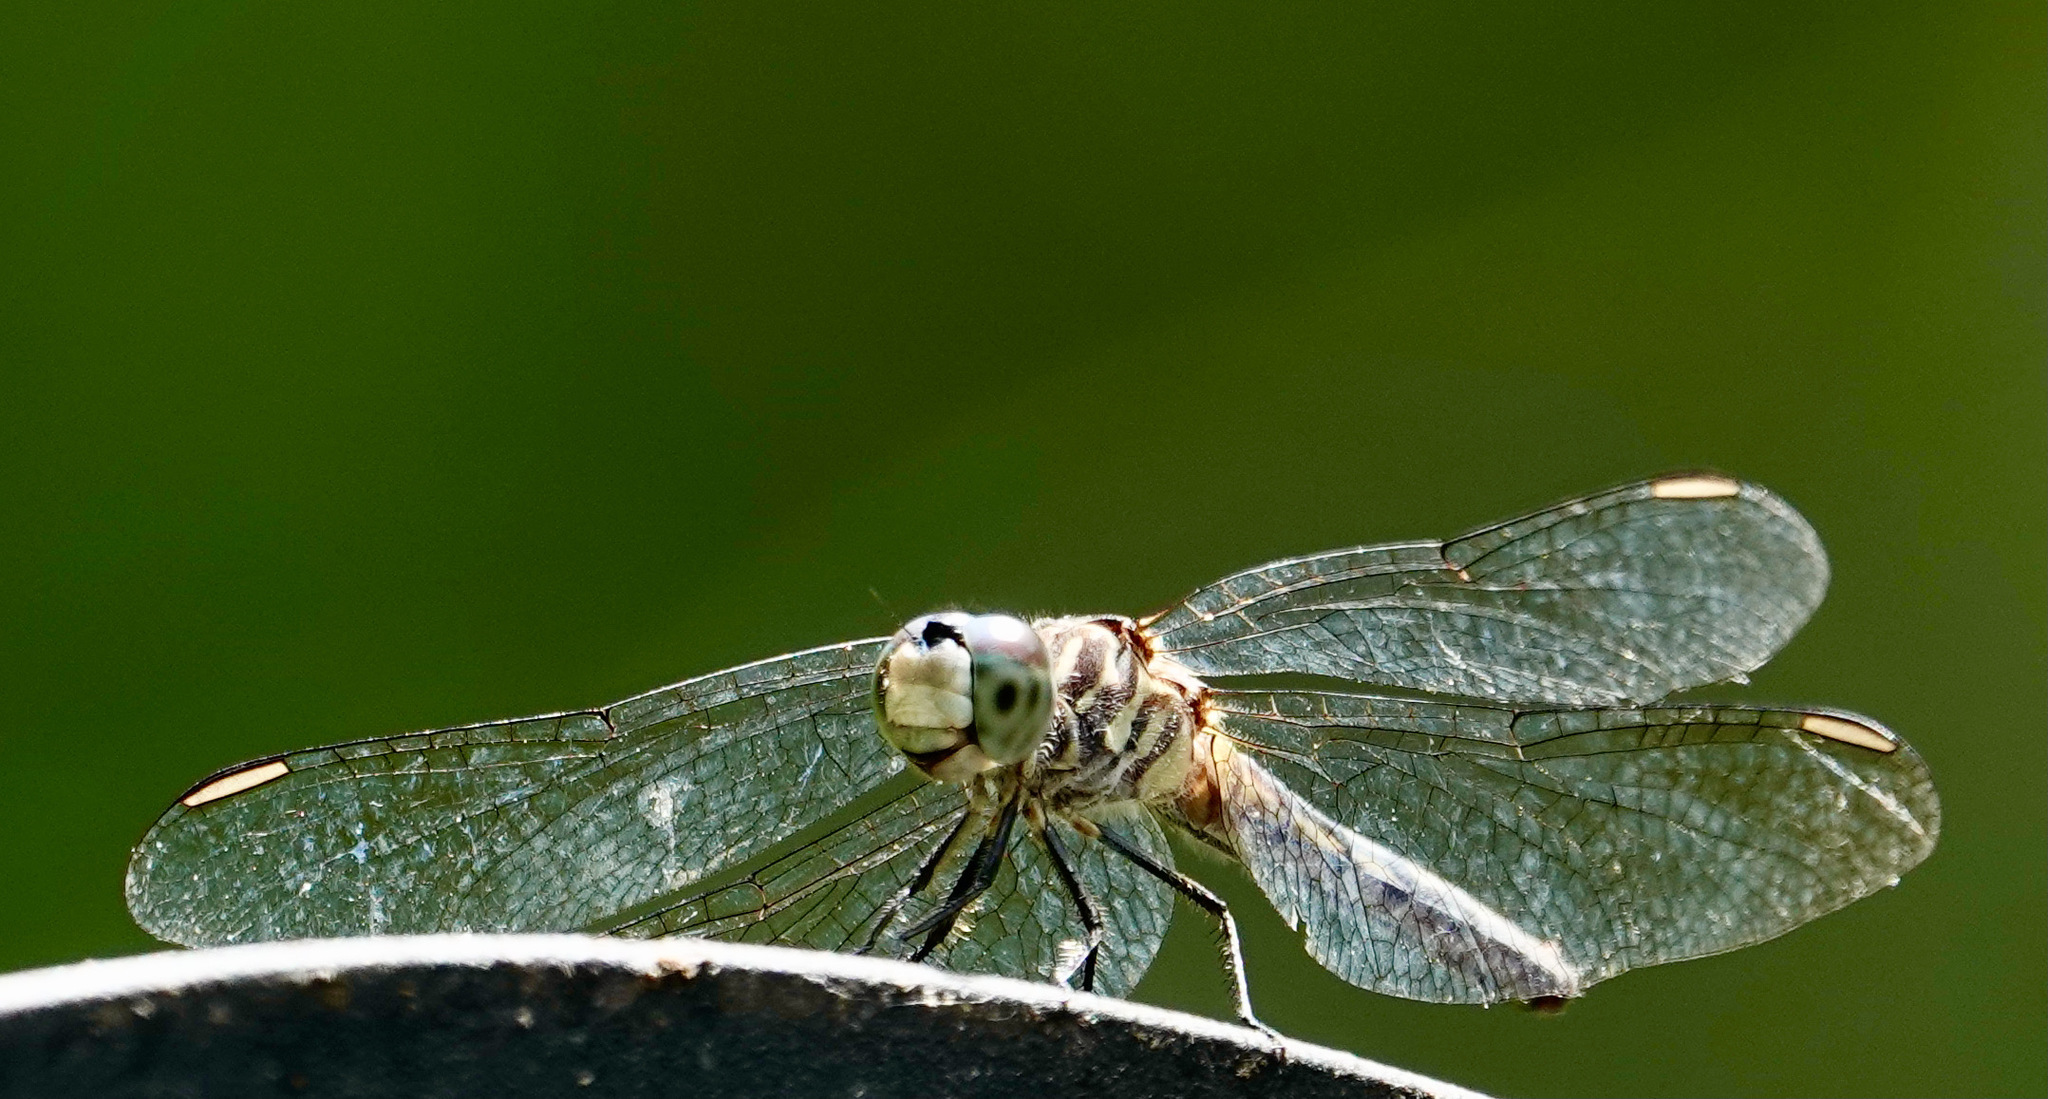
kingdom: Animalia
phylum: Arthropoda
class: Insecta
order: Odonata
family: Libellulidae
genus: Pachydiplax
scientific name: Pachydiplax longipennis
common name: Blue dasher
